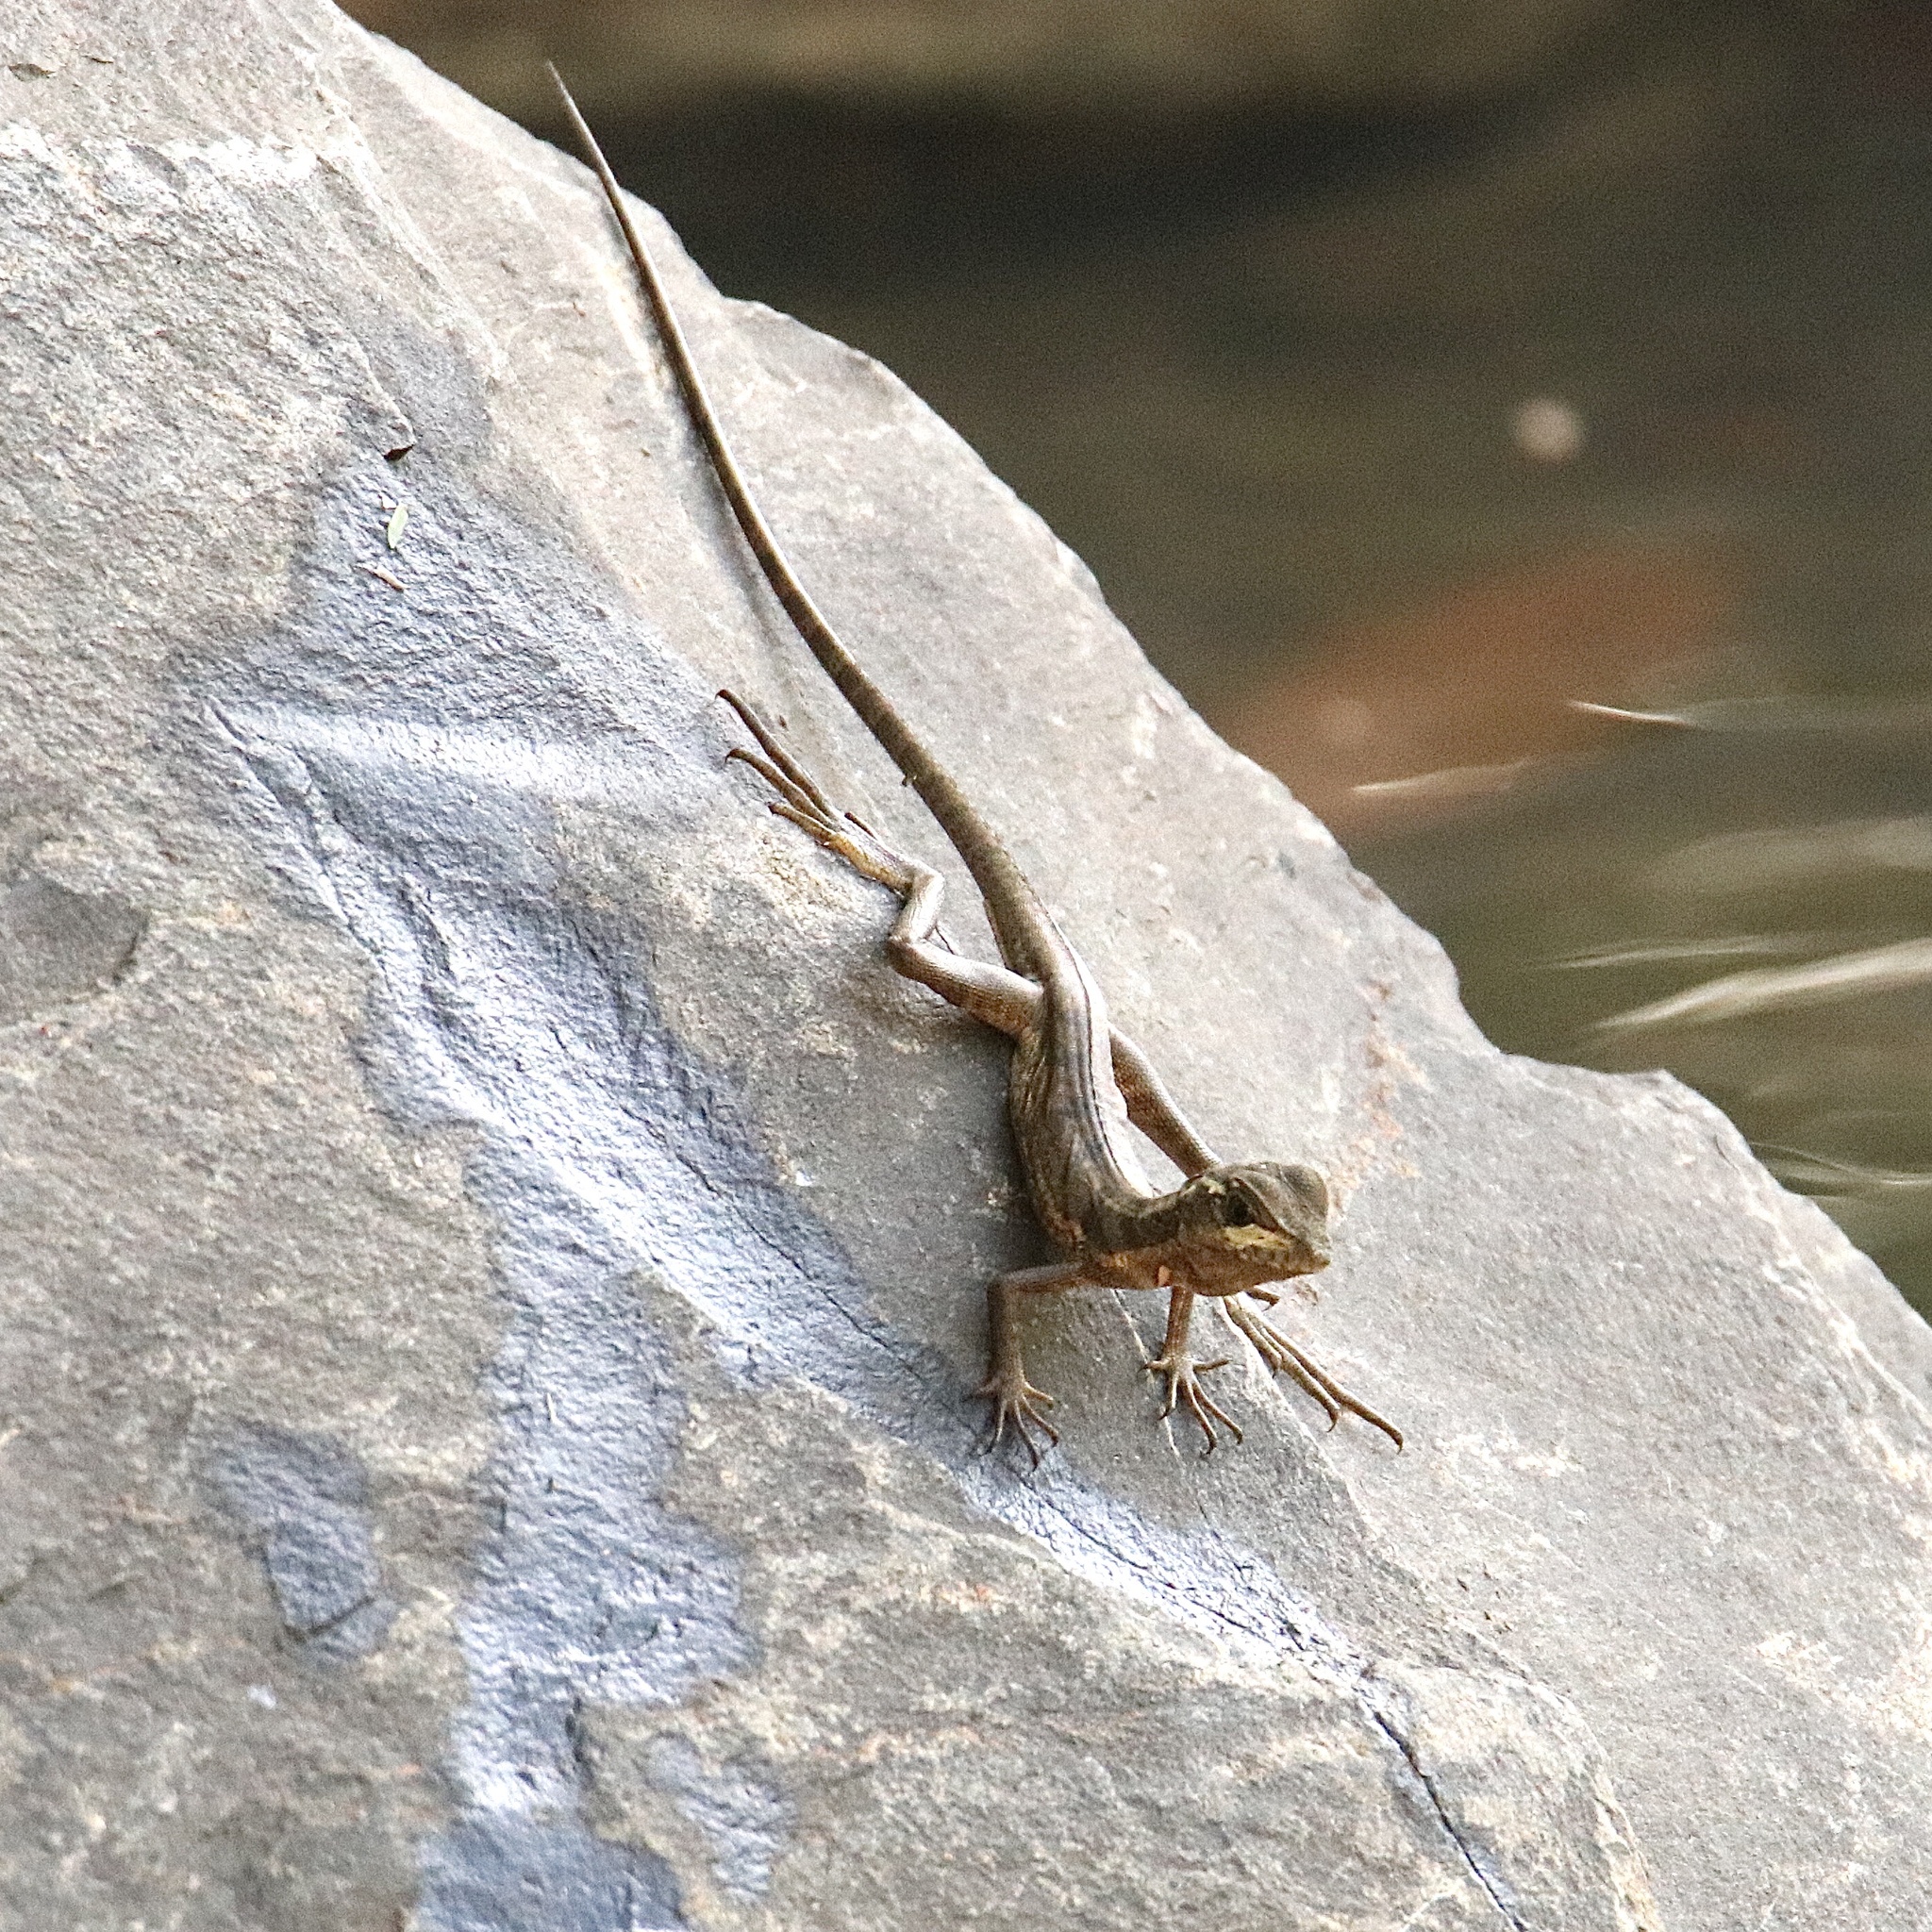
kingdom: Animalia
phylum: Chordata
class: Squamata
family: Corytophanidae
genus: Basiliscus
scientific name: Basiliscus basiliscus
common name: Common basilisk
